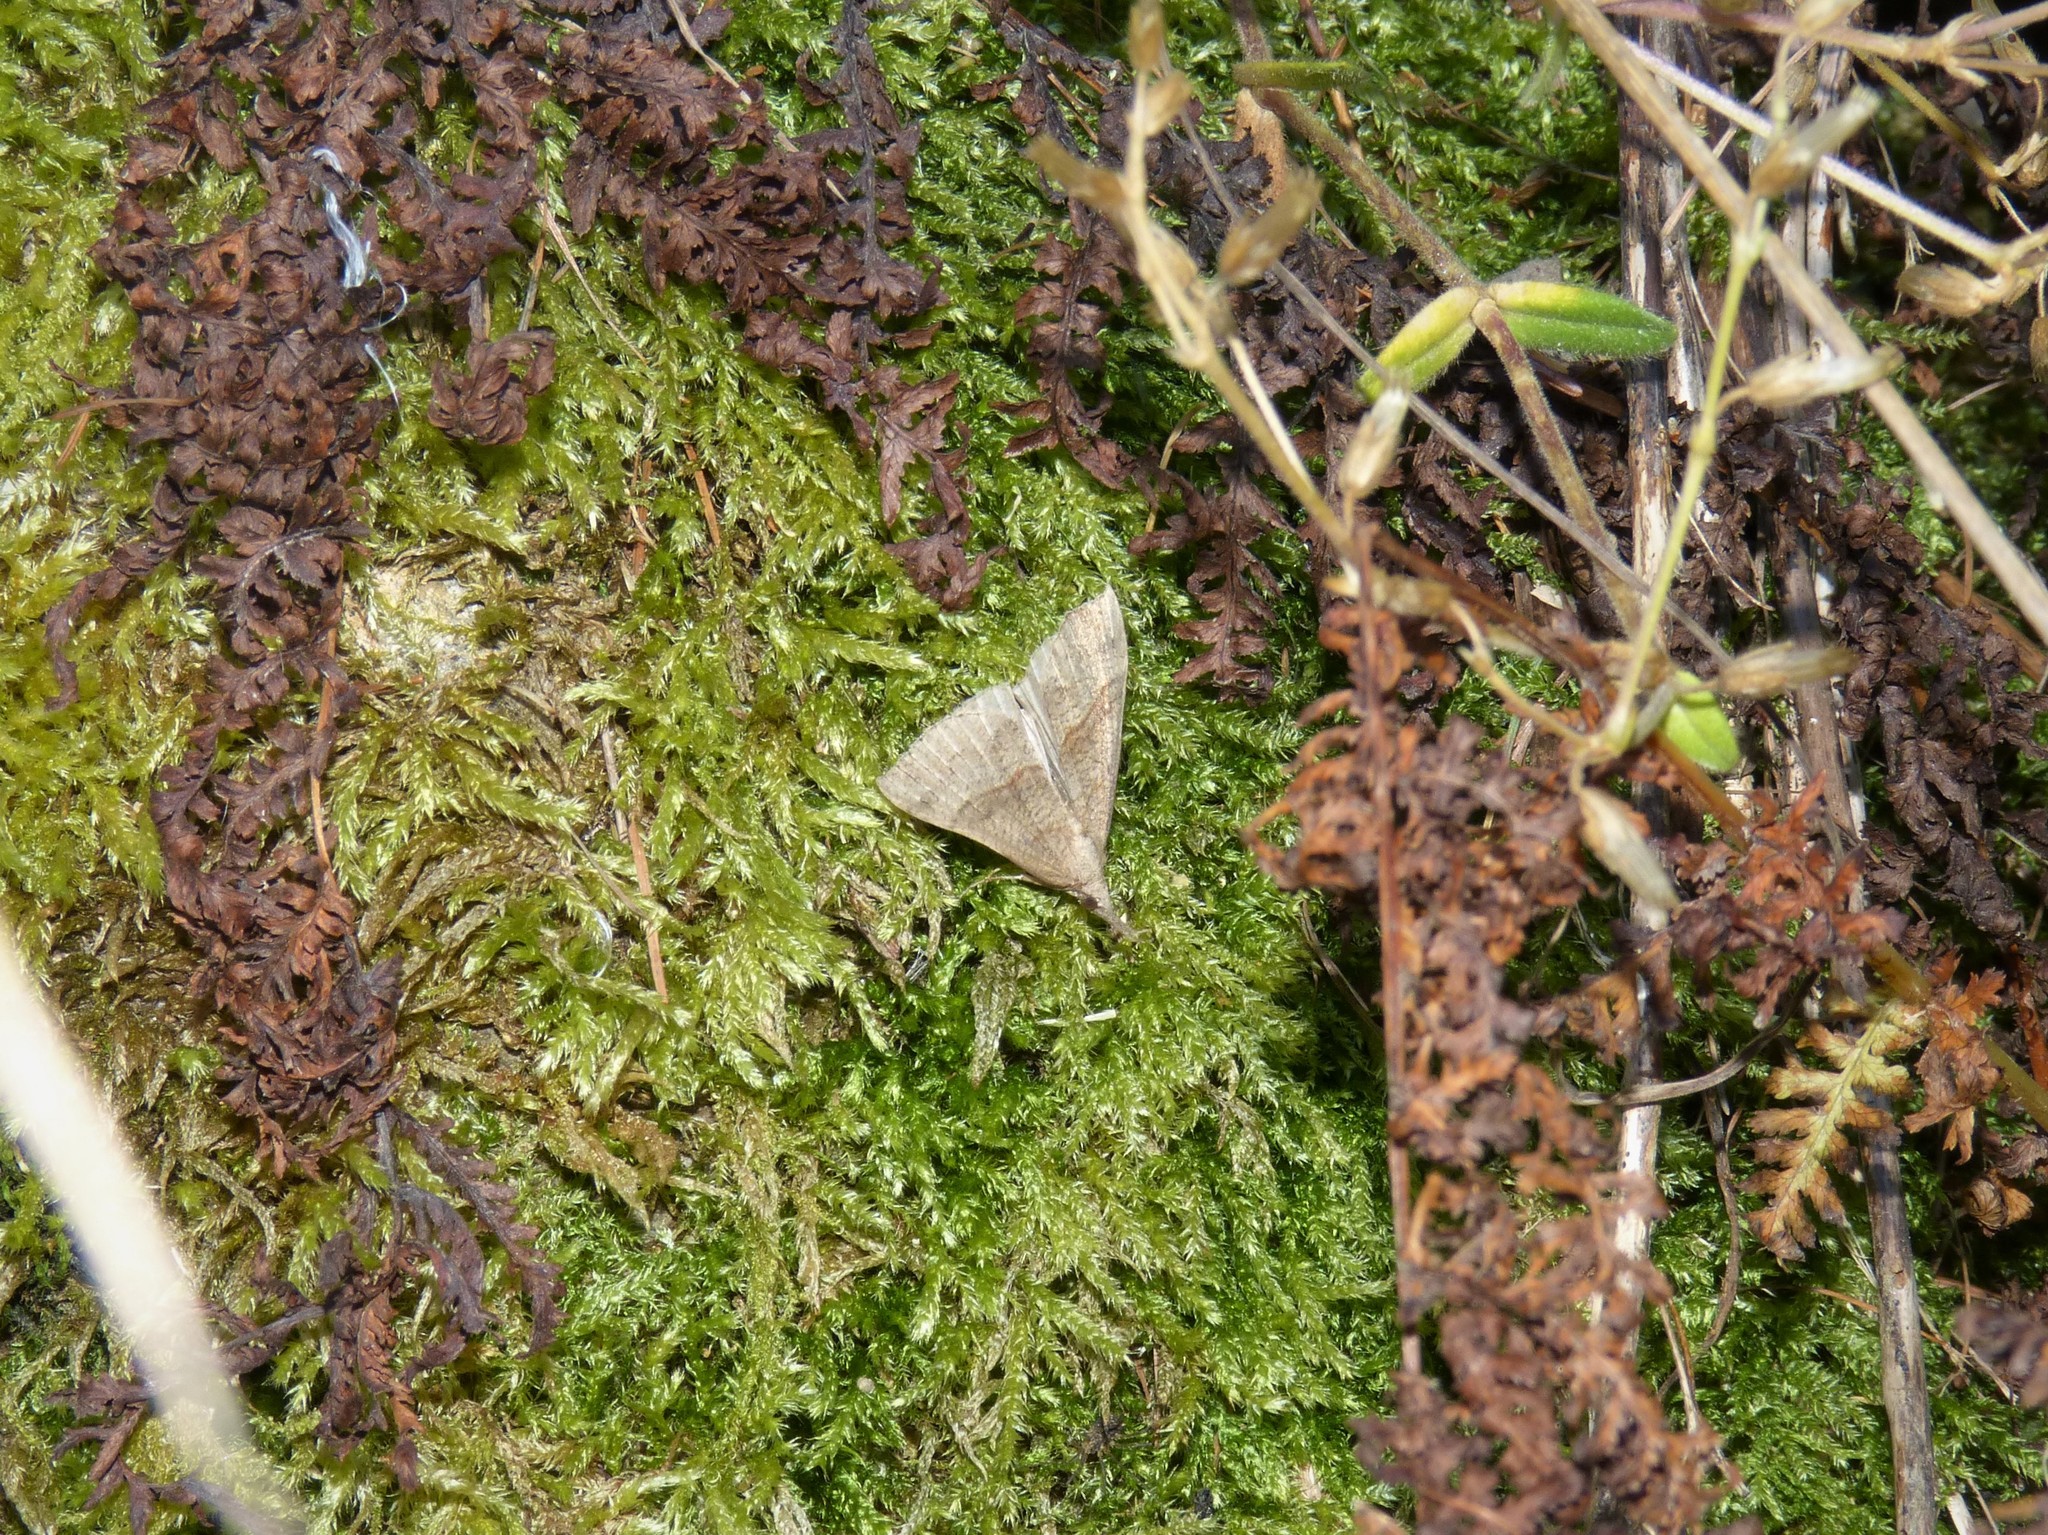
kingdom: Animalia
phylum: Arthropoda
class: Insecta
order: Lepidoptera
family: Erebidae
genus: Hypena
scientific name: Hypena proboscidalis
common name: Snout
